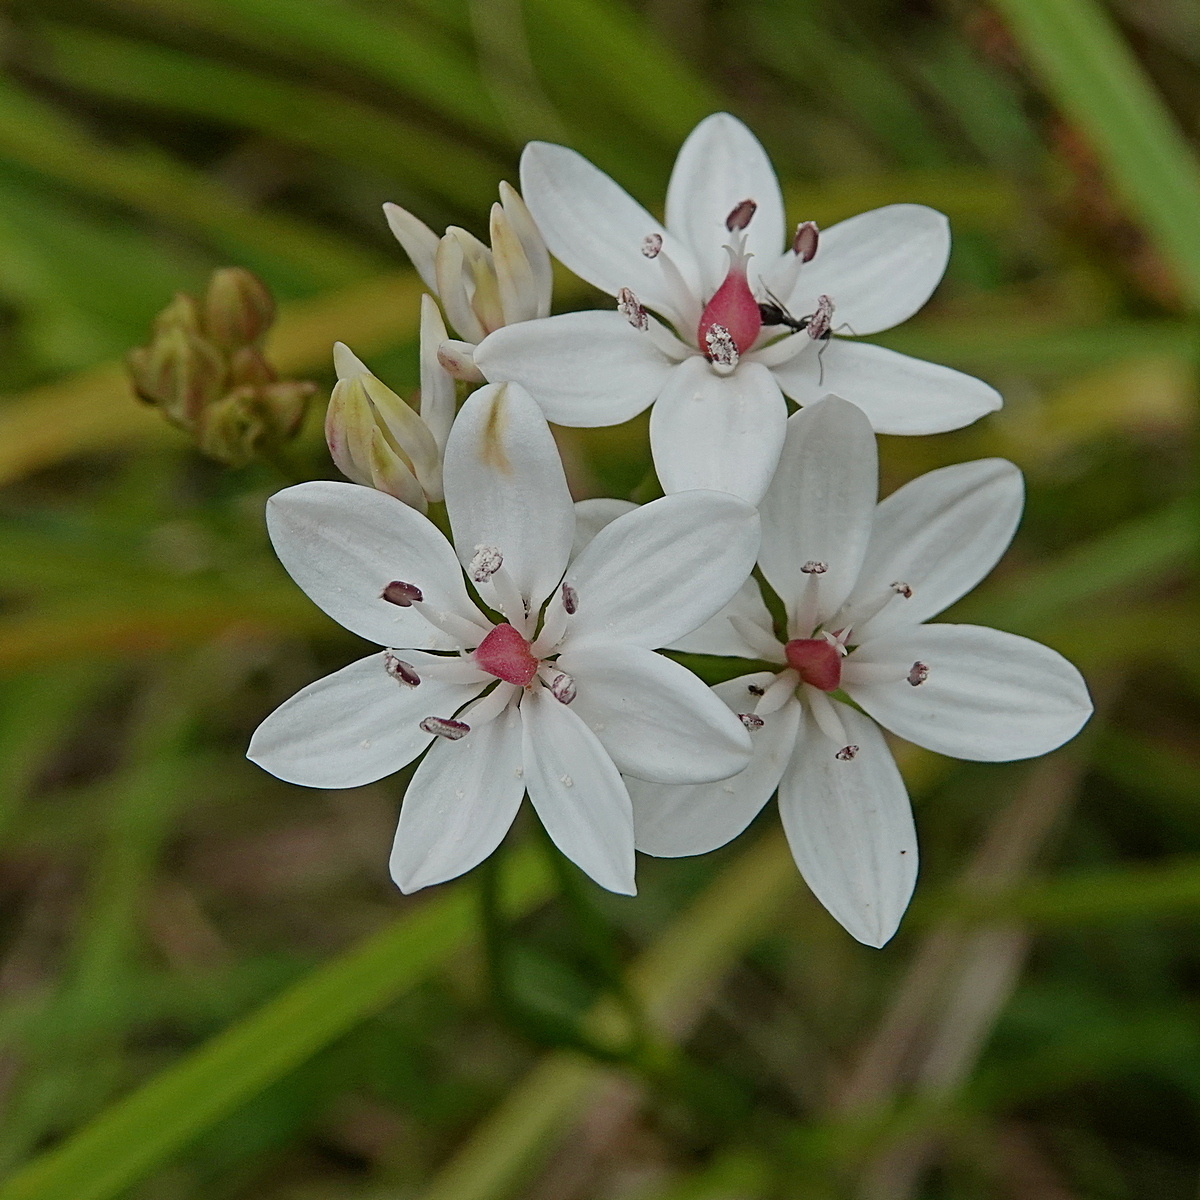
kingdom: Plantae
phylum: Tracheophyta
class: Liliopsida
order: Liliales
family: Colchicaceae
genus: Burchardia
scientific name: Burchardia umbellata
